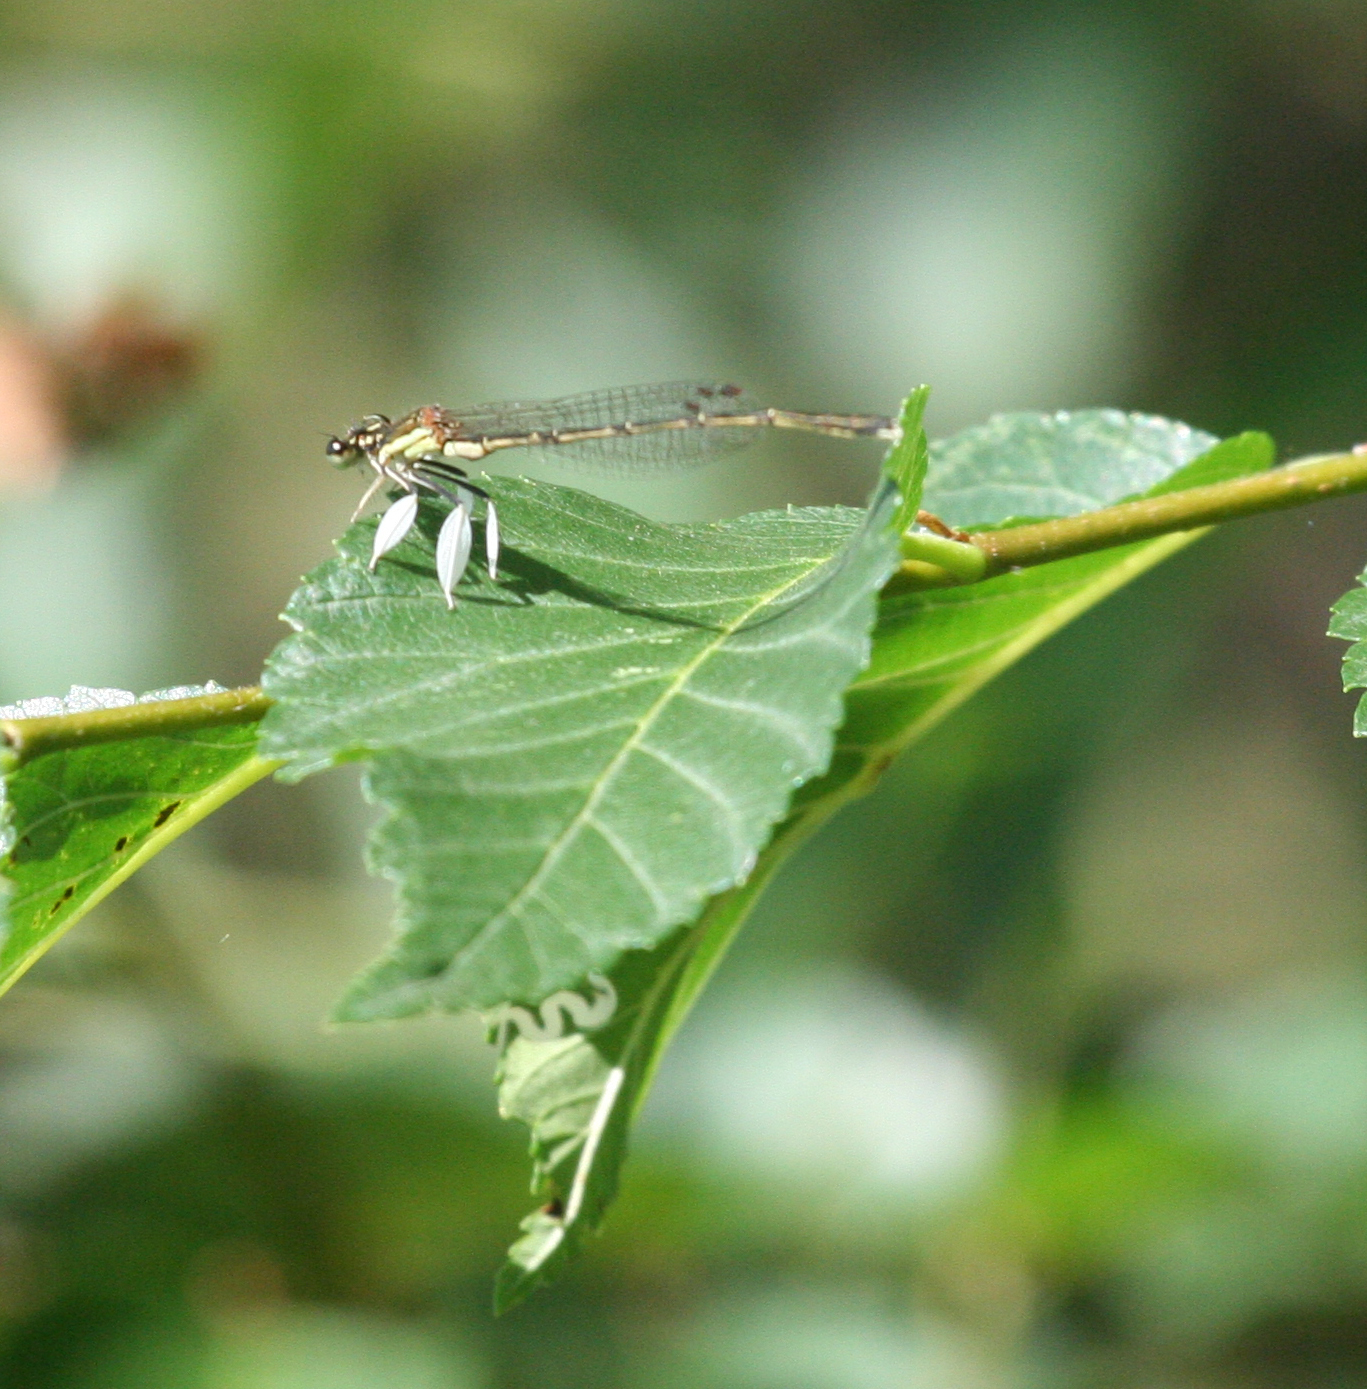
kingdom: Animalia
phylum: Arthropoda
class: Insecta
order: Odonata
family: Platycnemididae
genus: Platycnemis
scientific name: Platycnemis phyllopoda
